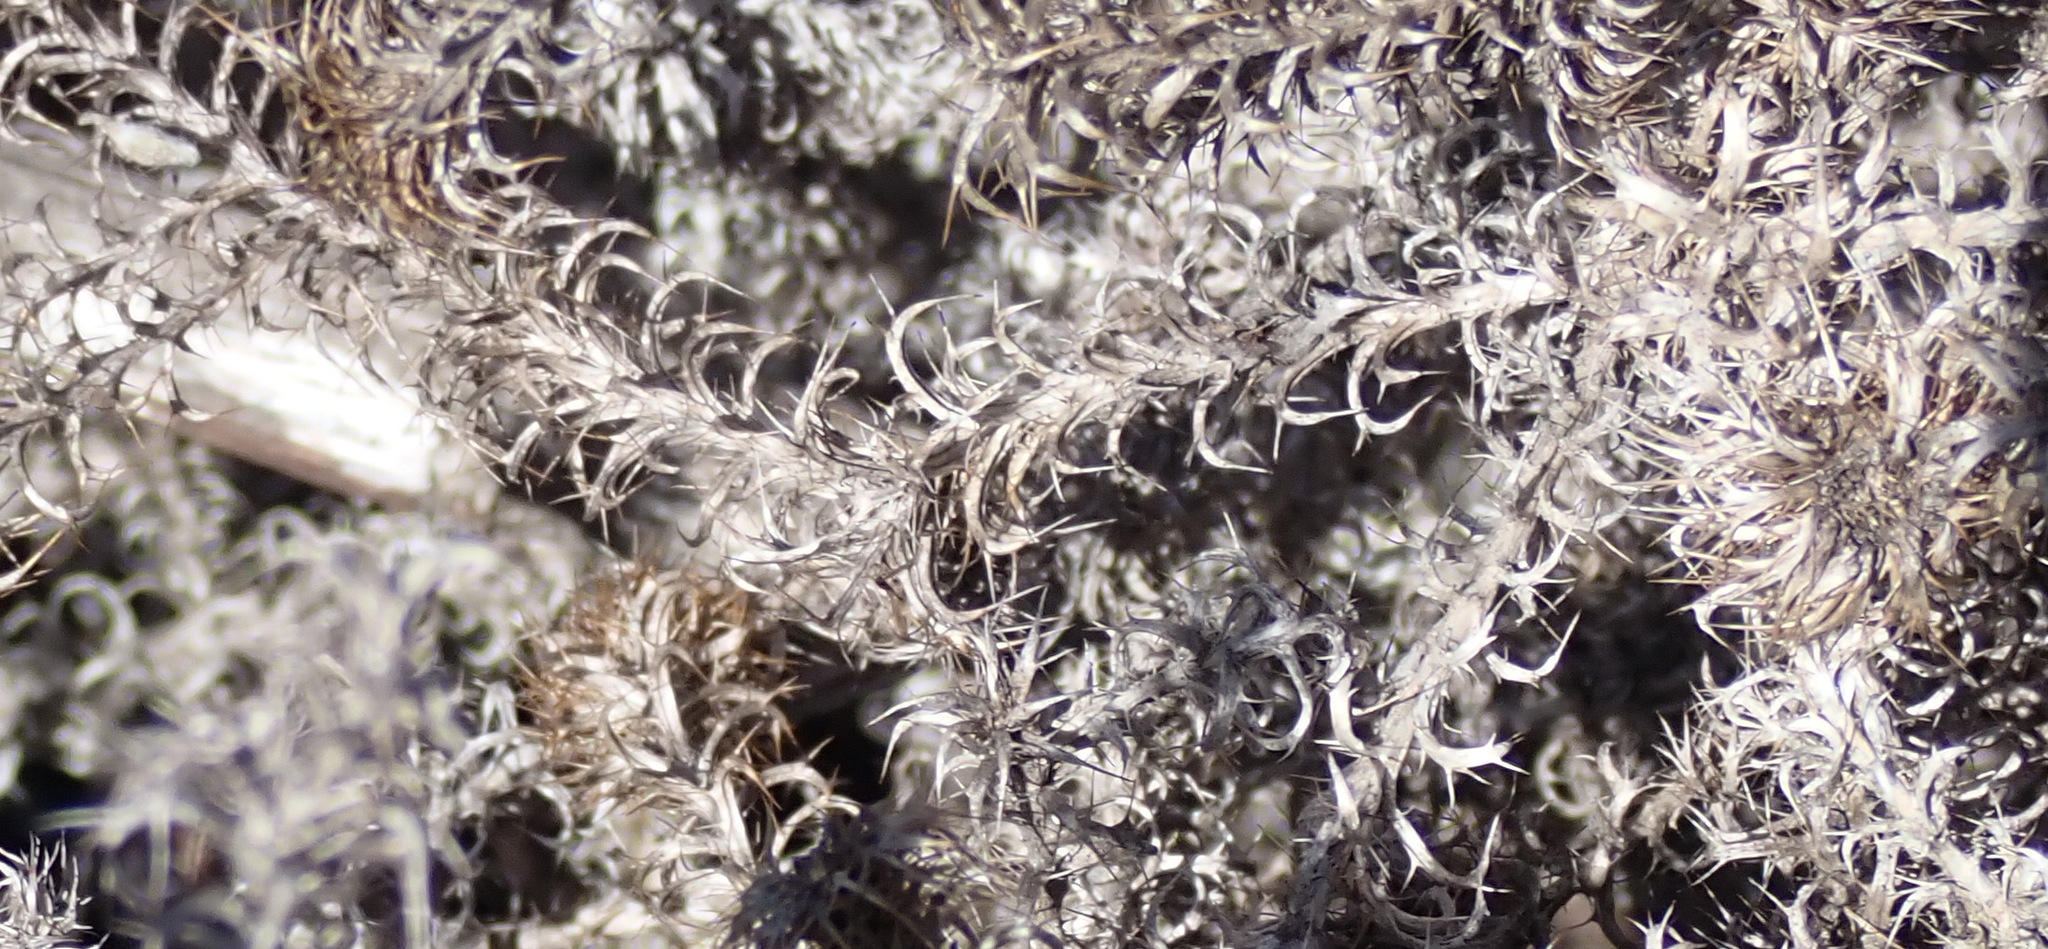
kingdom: Plantae
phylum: Tracheophyta
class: Magnoliopsida
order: Asterales
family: Asteraceae
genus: Cullumia
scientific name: Cullumia decurrens
